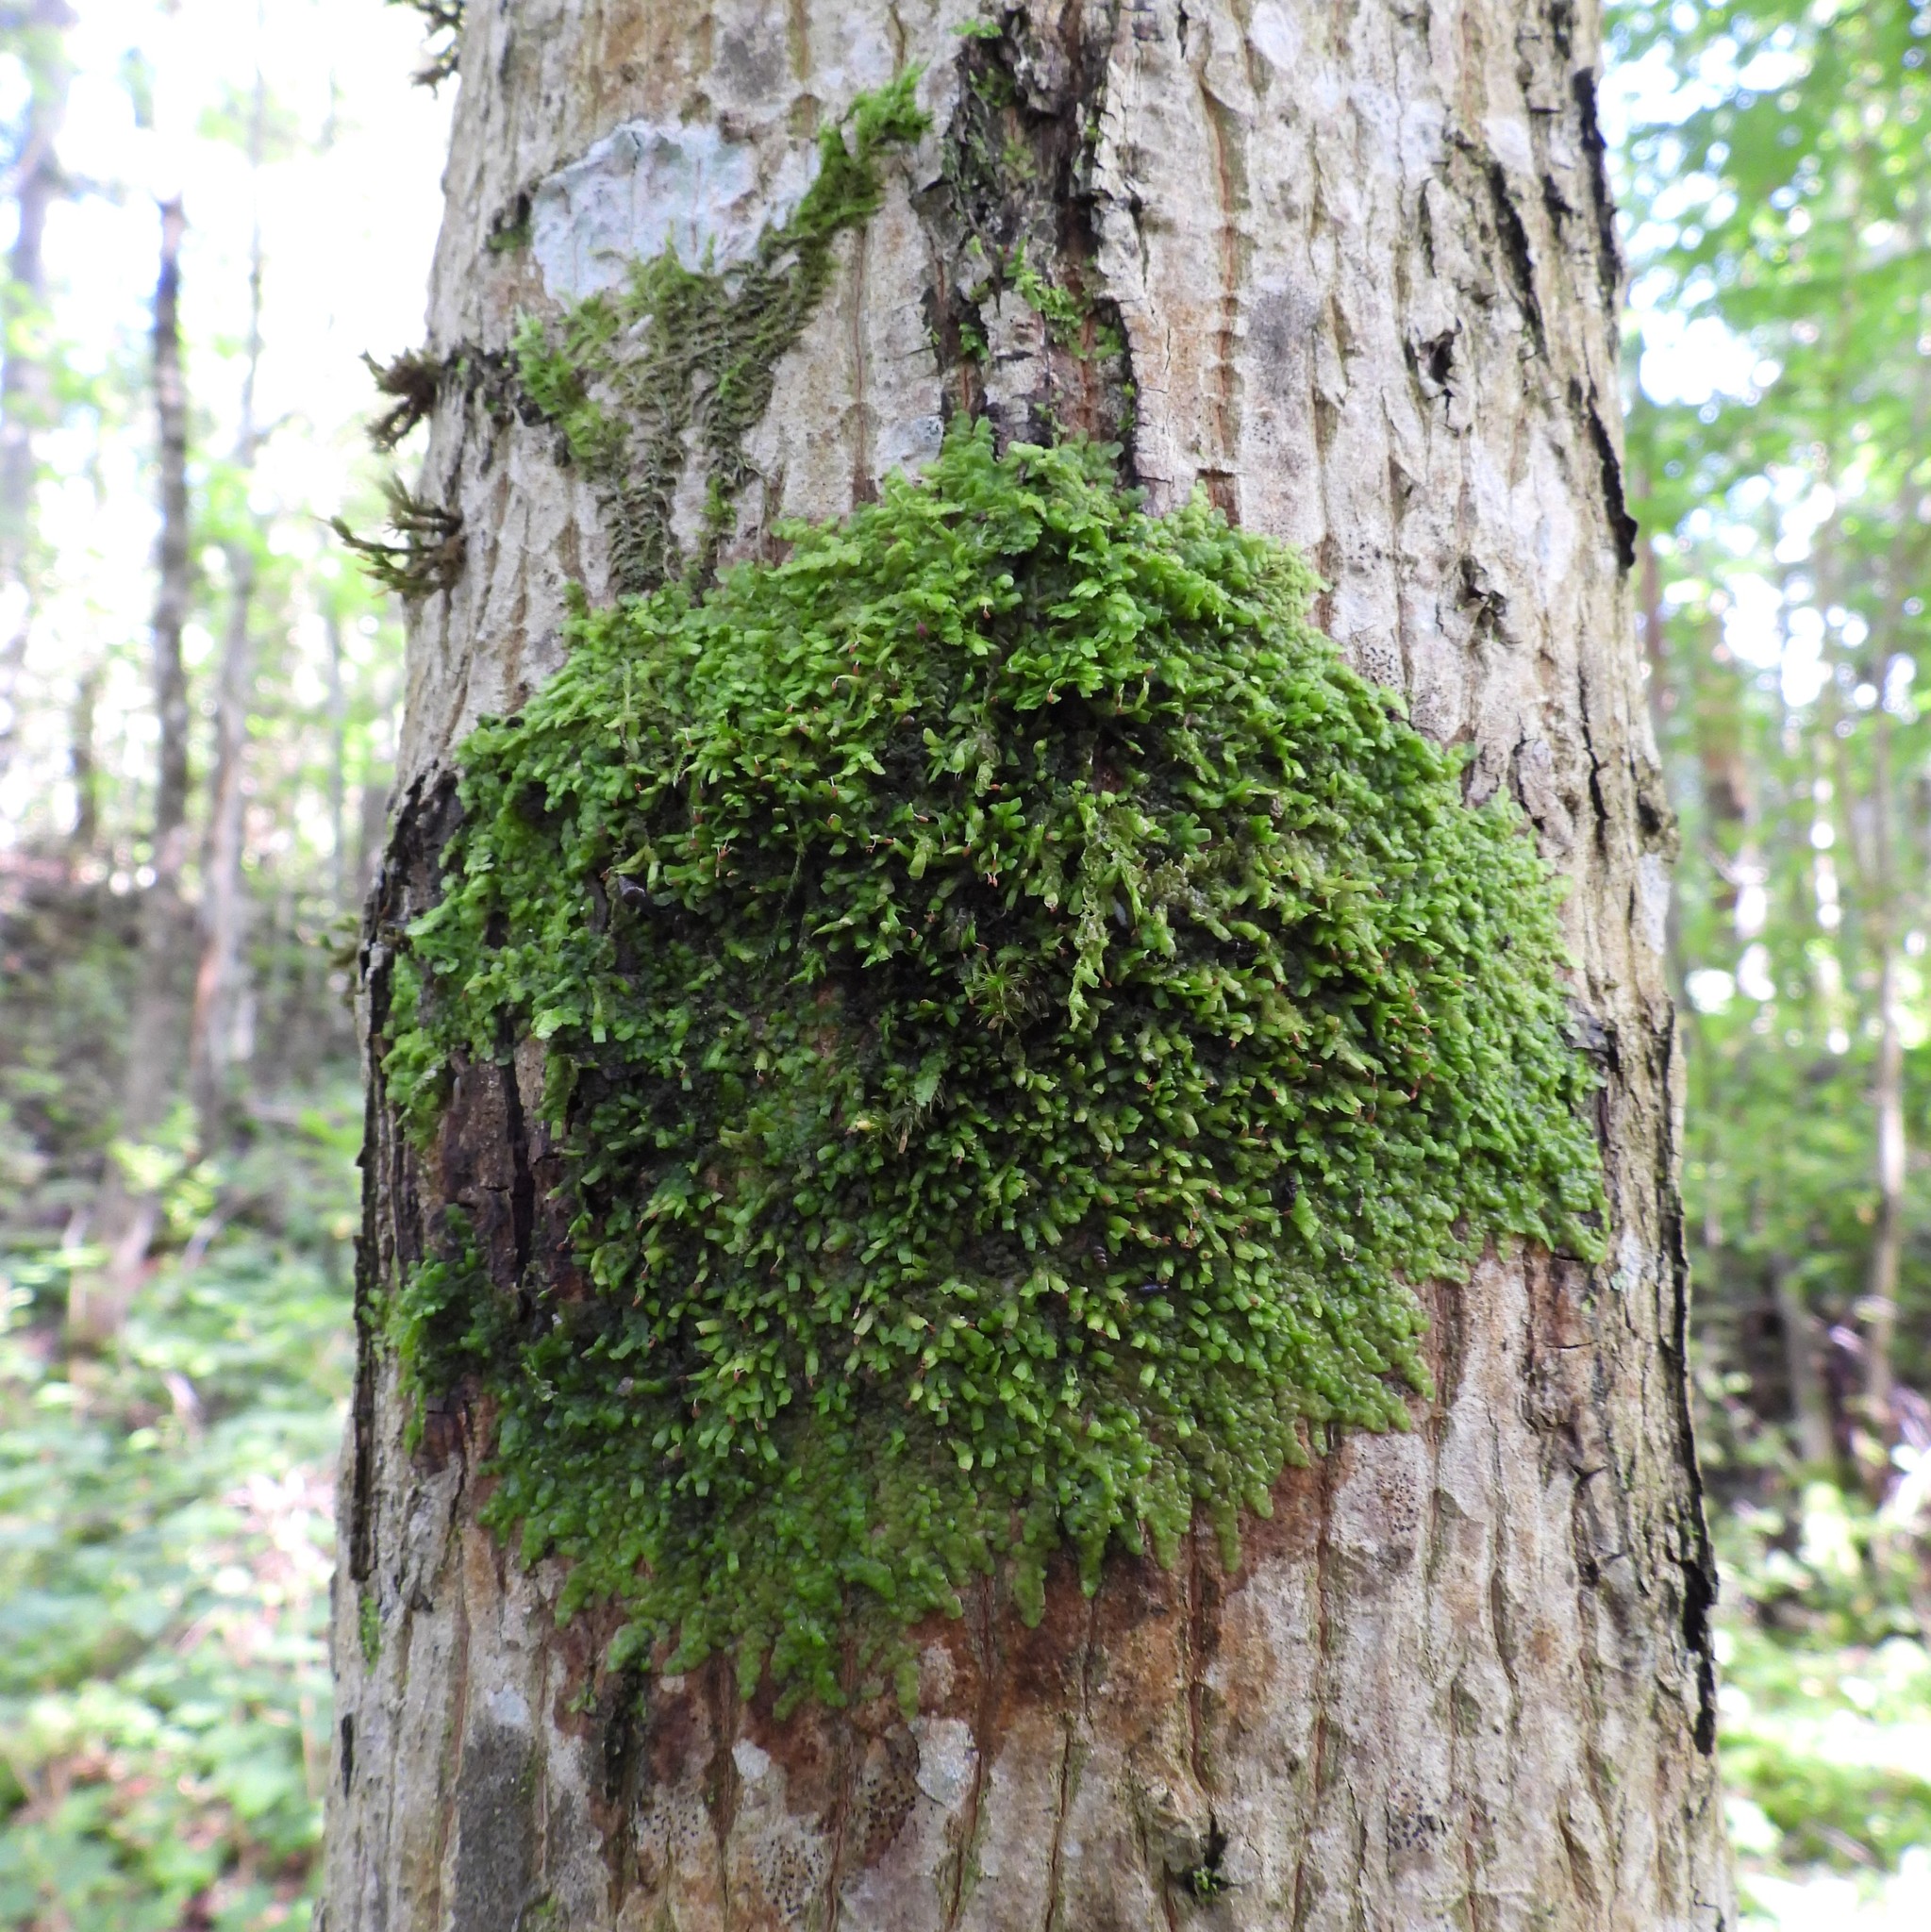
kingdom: Plantae
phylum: Marchantiophyta
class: Jungermanniopsida
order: Porellales
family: Radulaceae
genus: Radula
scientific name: Radula complanata
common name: Flat-leaved scalewort
